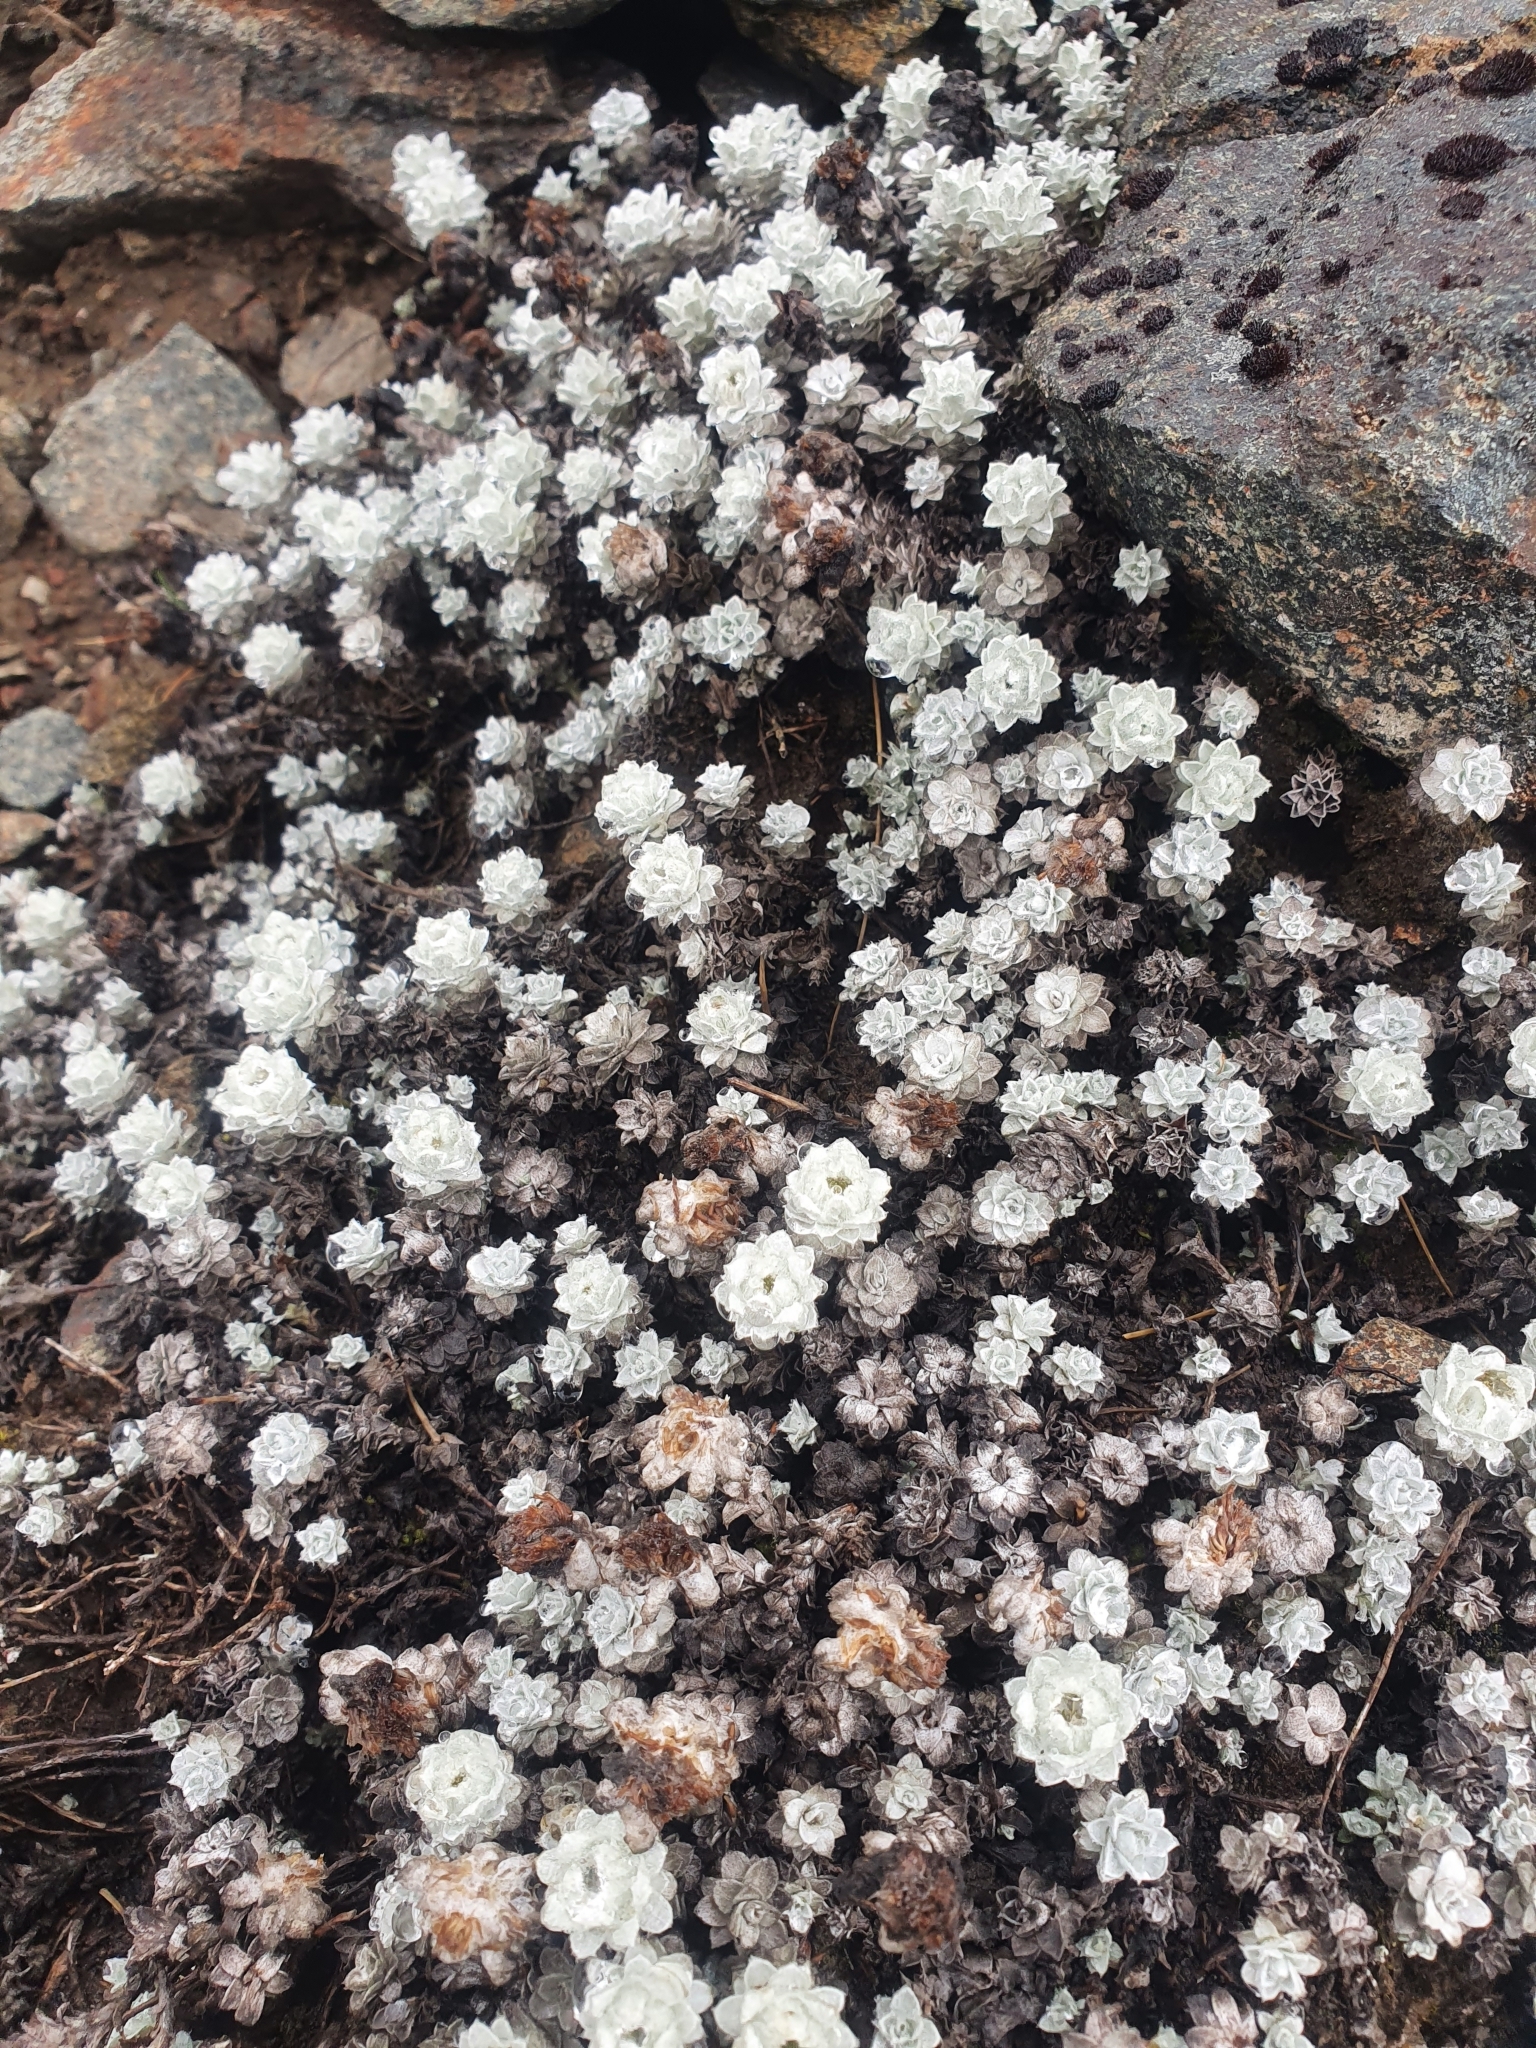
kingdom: Plantae
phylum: Tracheophyta
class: Magnoliopsida
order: Asterales
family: Asteraceae
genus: Leucogenes
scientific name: Leucogenes grandiceps
